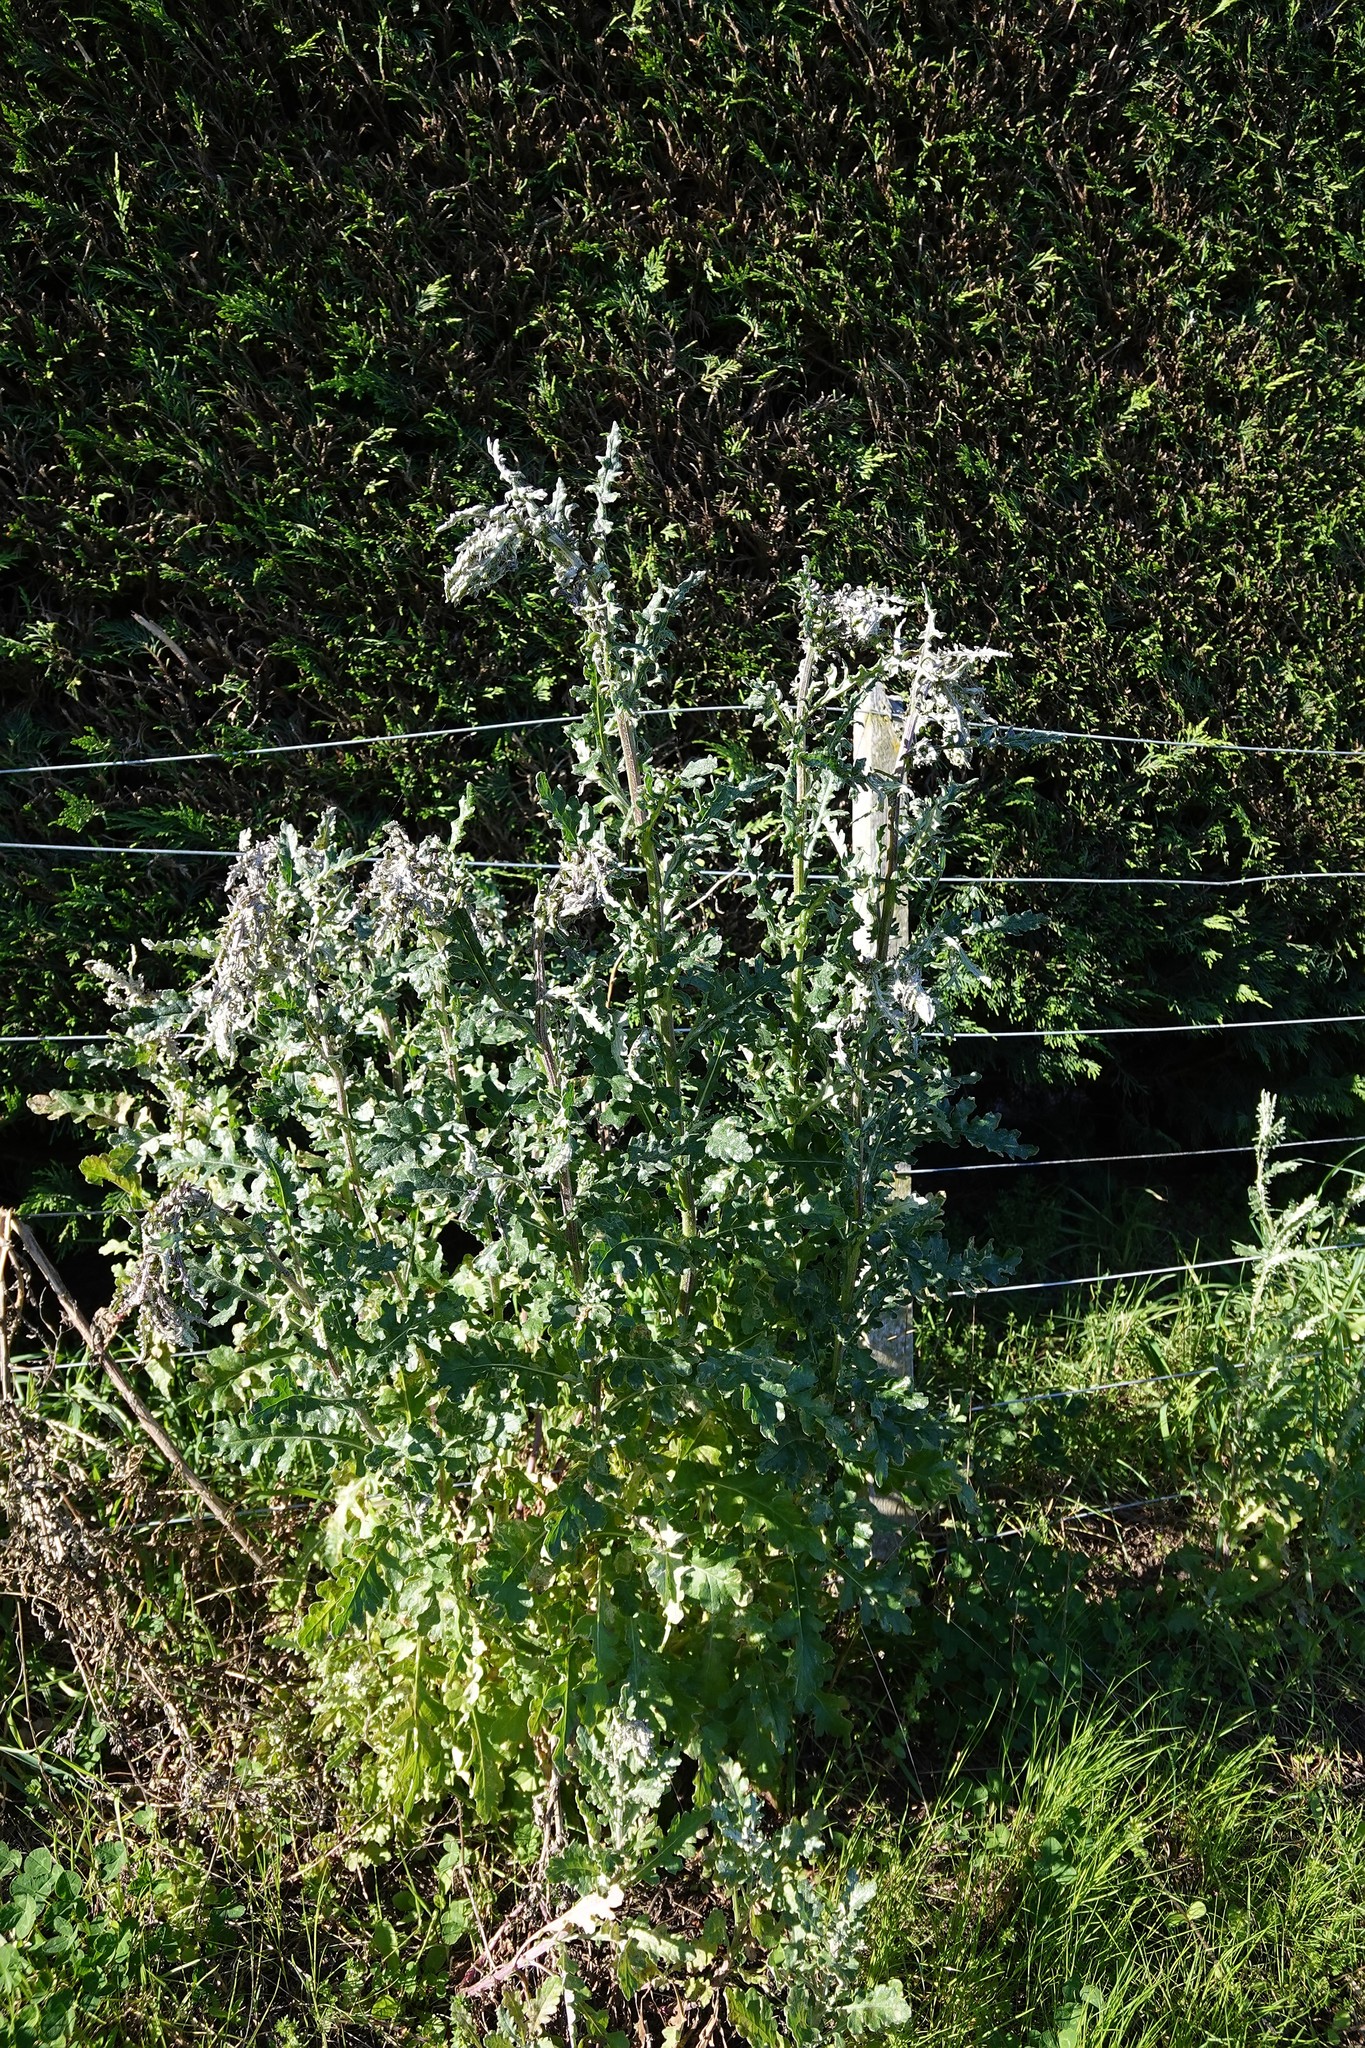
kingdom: Plantae
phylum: Tracheophyta
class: Magnoliopsida
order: Asterales
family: Asteraceae
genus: Senecio
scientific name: Senecio glomeratus
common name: Cutleaf burnweed
